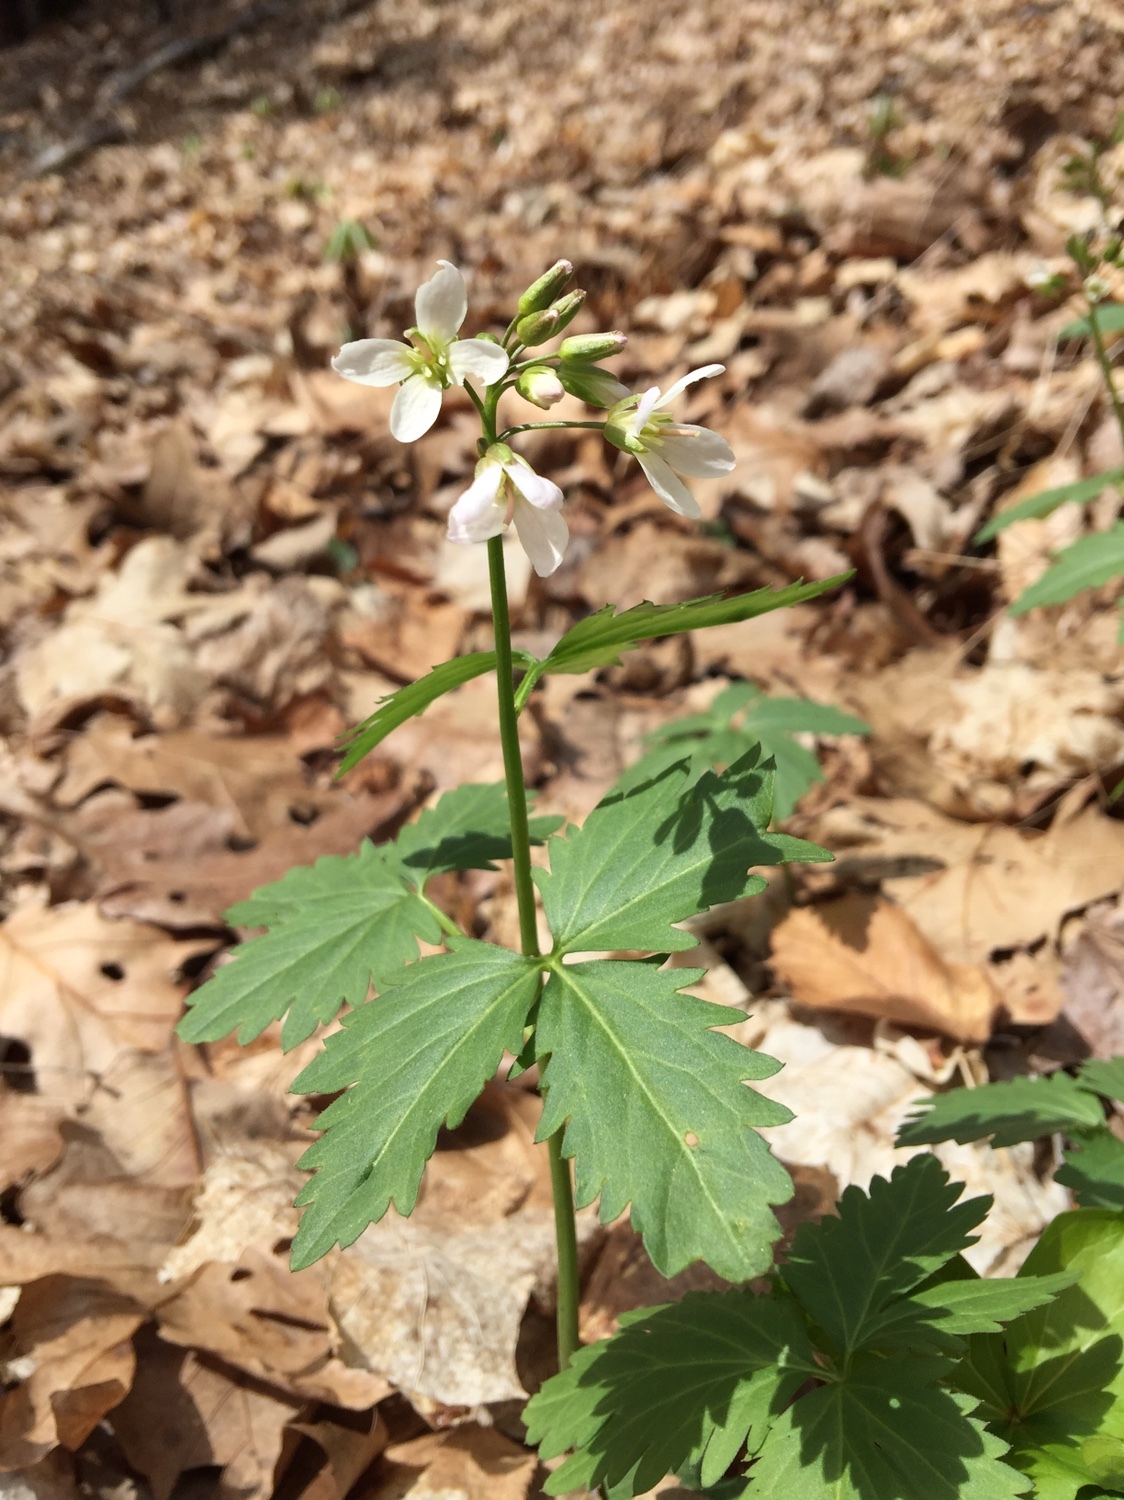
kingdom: Plantae
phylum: Tracheophyta
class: Magnoliopsida
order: Brassicales
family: Brassicaceae
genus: Cardamine
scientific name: Cardamine diphylla
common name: Broad-leaved toothwort
